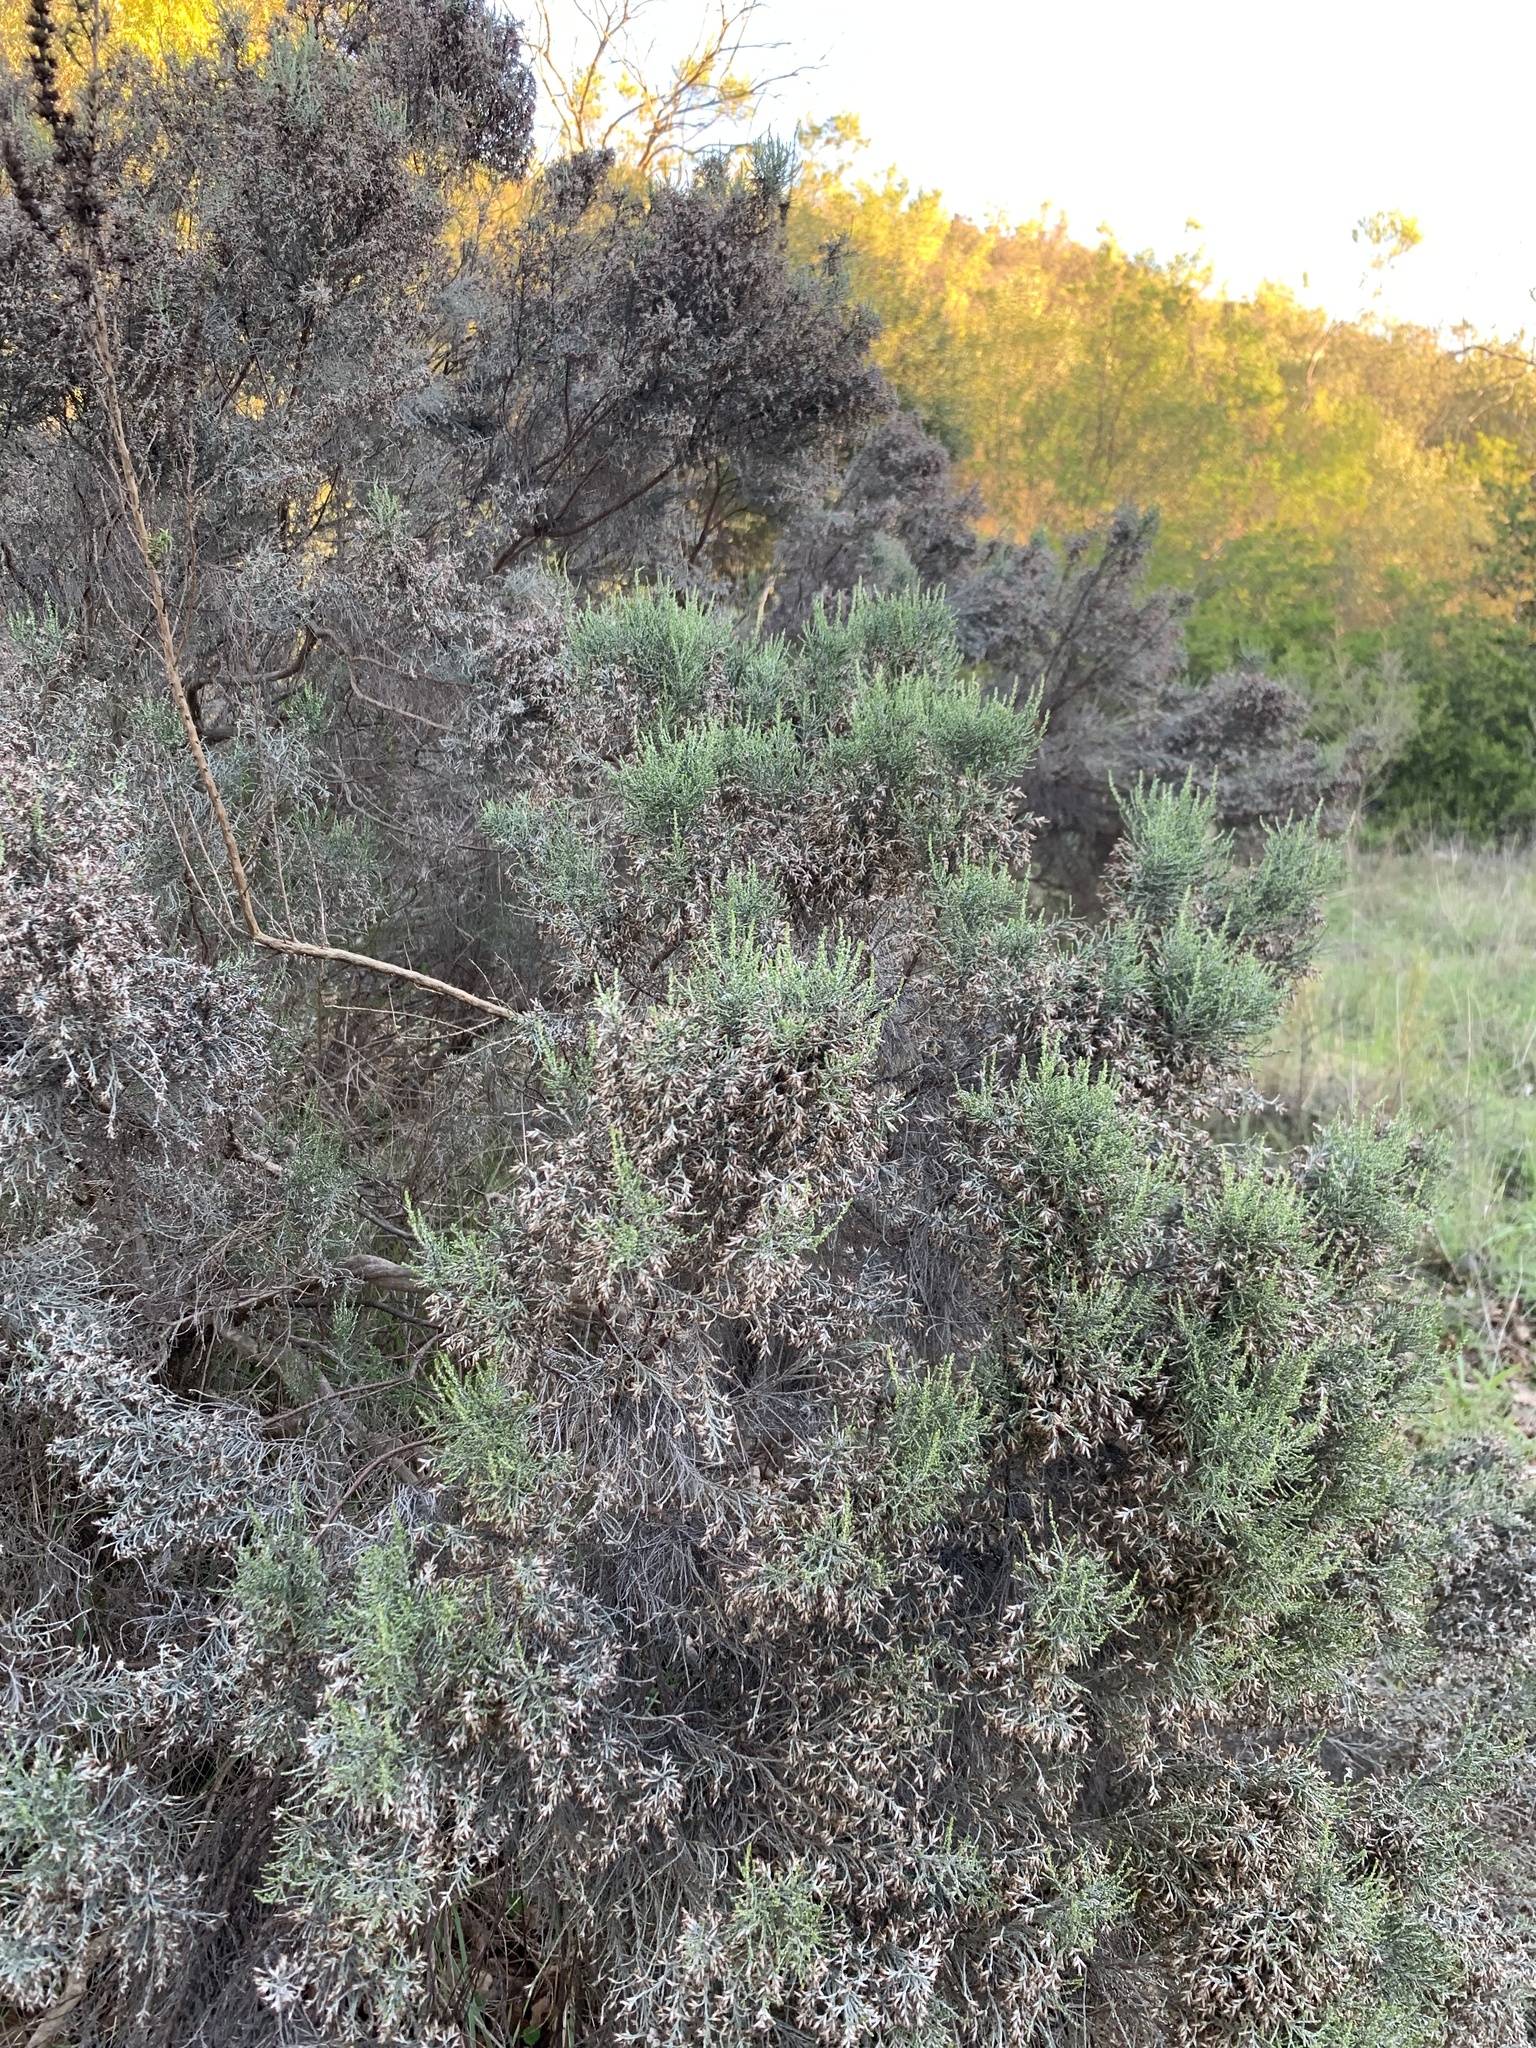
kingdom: Plantae
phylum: Tracheophyta
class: Magnoliopsida
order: Asterales
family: Asteraceae
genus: Dicerothamnus
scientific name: Dicerothamnus rhinocerotis
